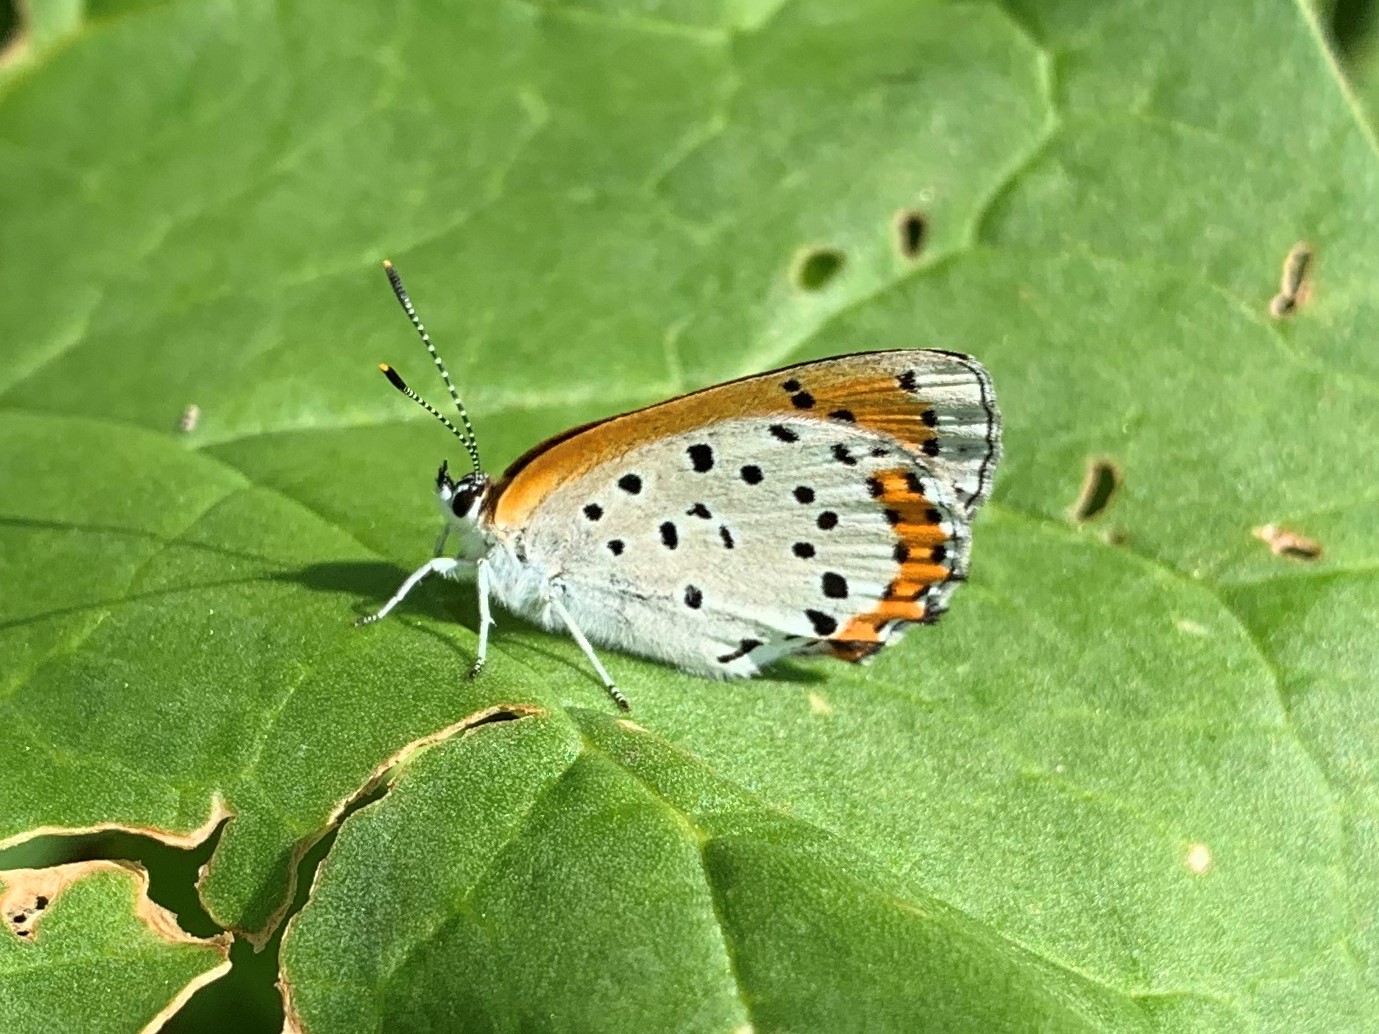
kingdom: Animalia
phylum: Arthropoda
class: Insecta
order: Lepidoptera
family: Lycaenidae
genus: Tharsalea
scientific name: Tharsalea hyllus
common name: Bronze copper
